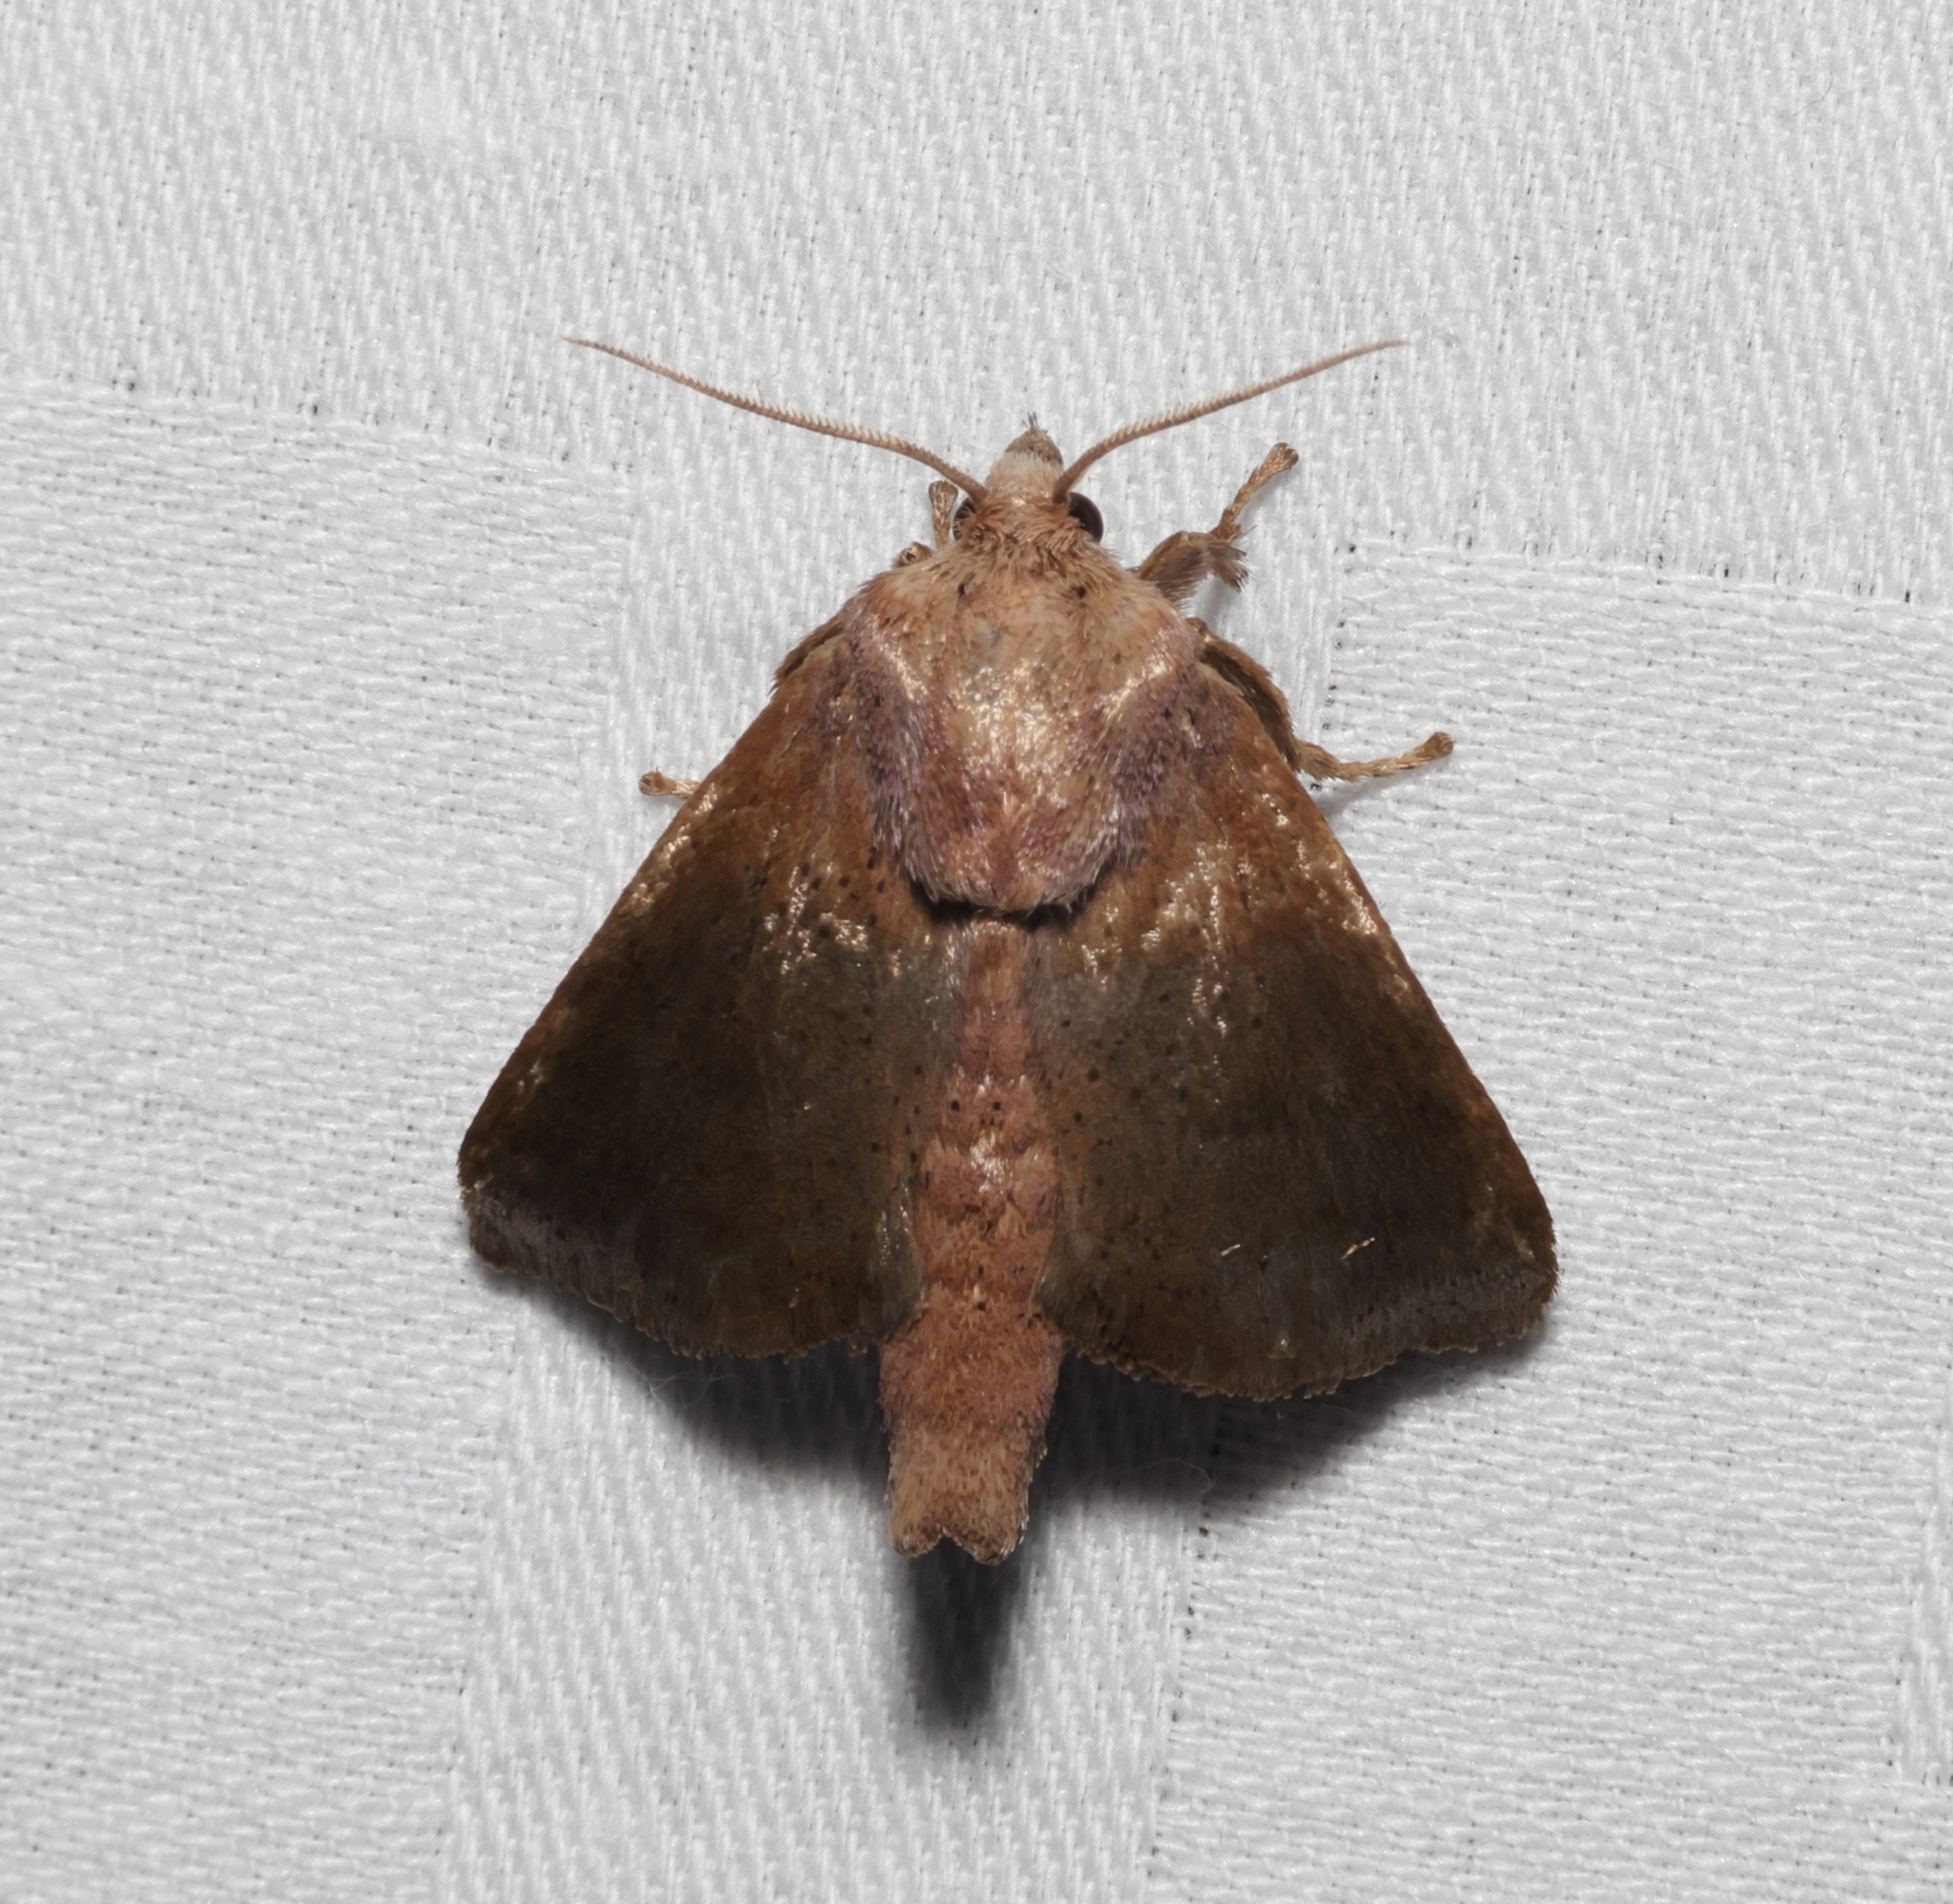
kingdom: Animalia
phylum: Arthropoda
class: Insecta
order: Lepidoptera
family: Limacodidae
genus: Griseothosea
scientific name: Griseothosea fasciata
